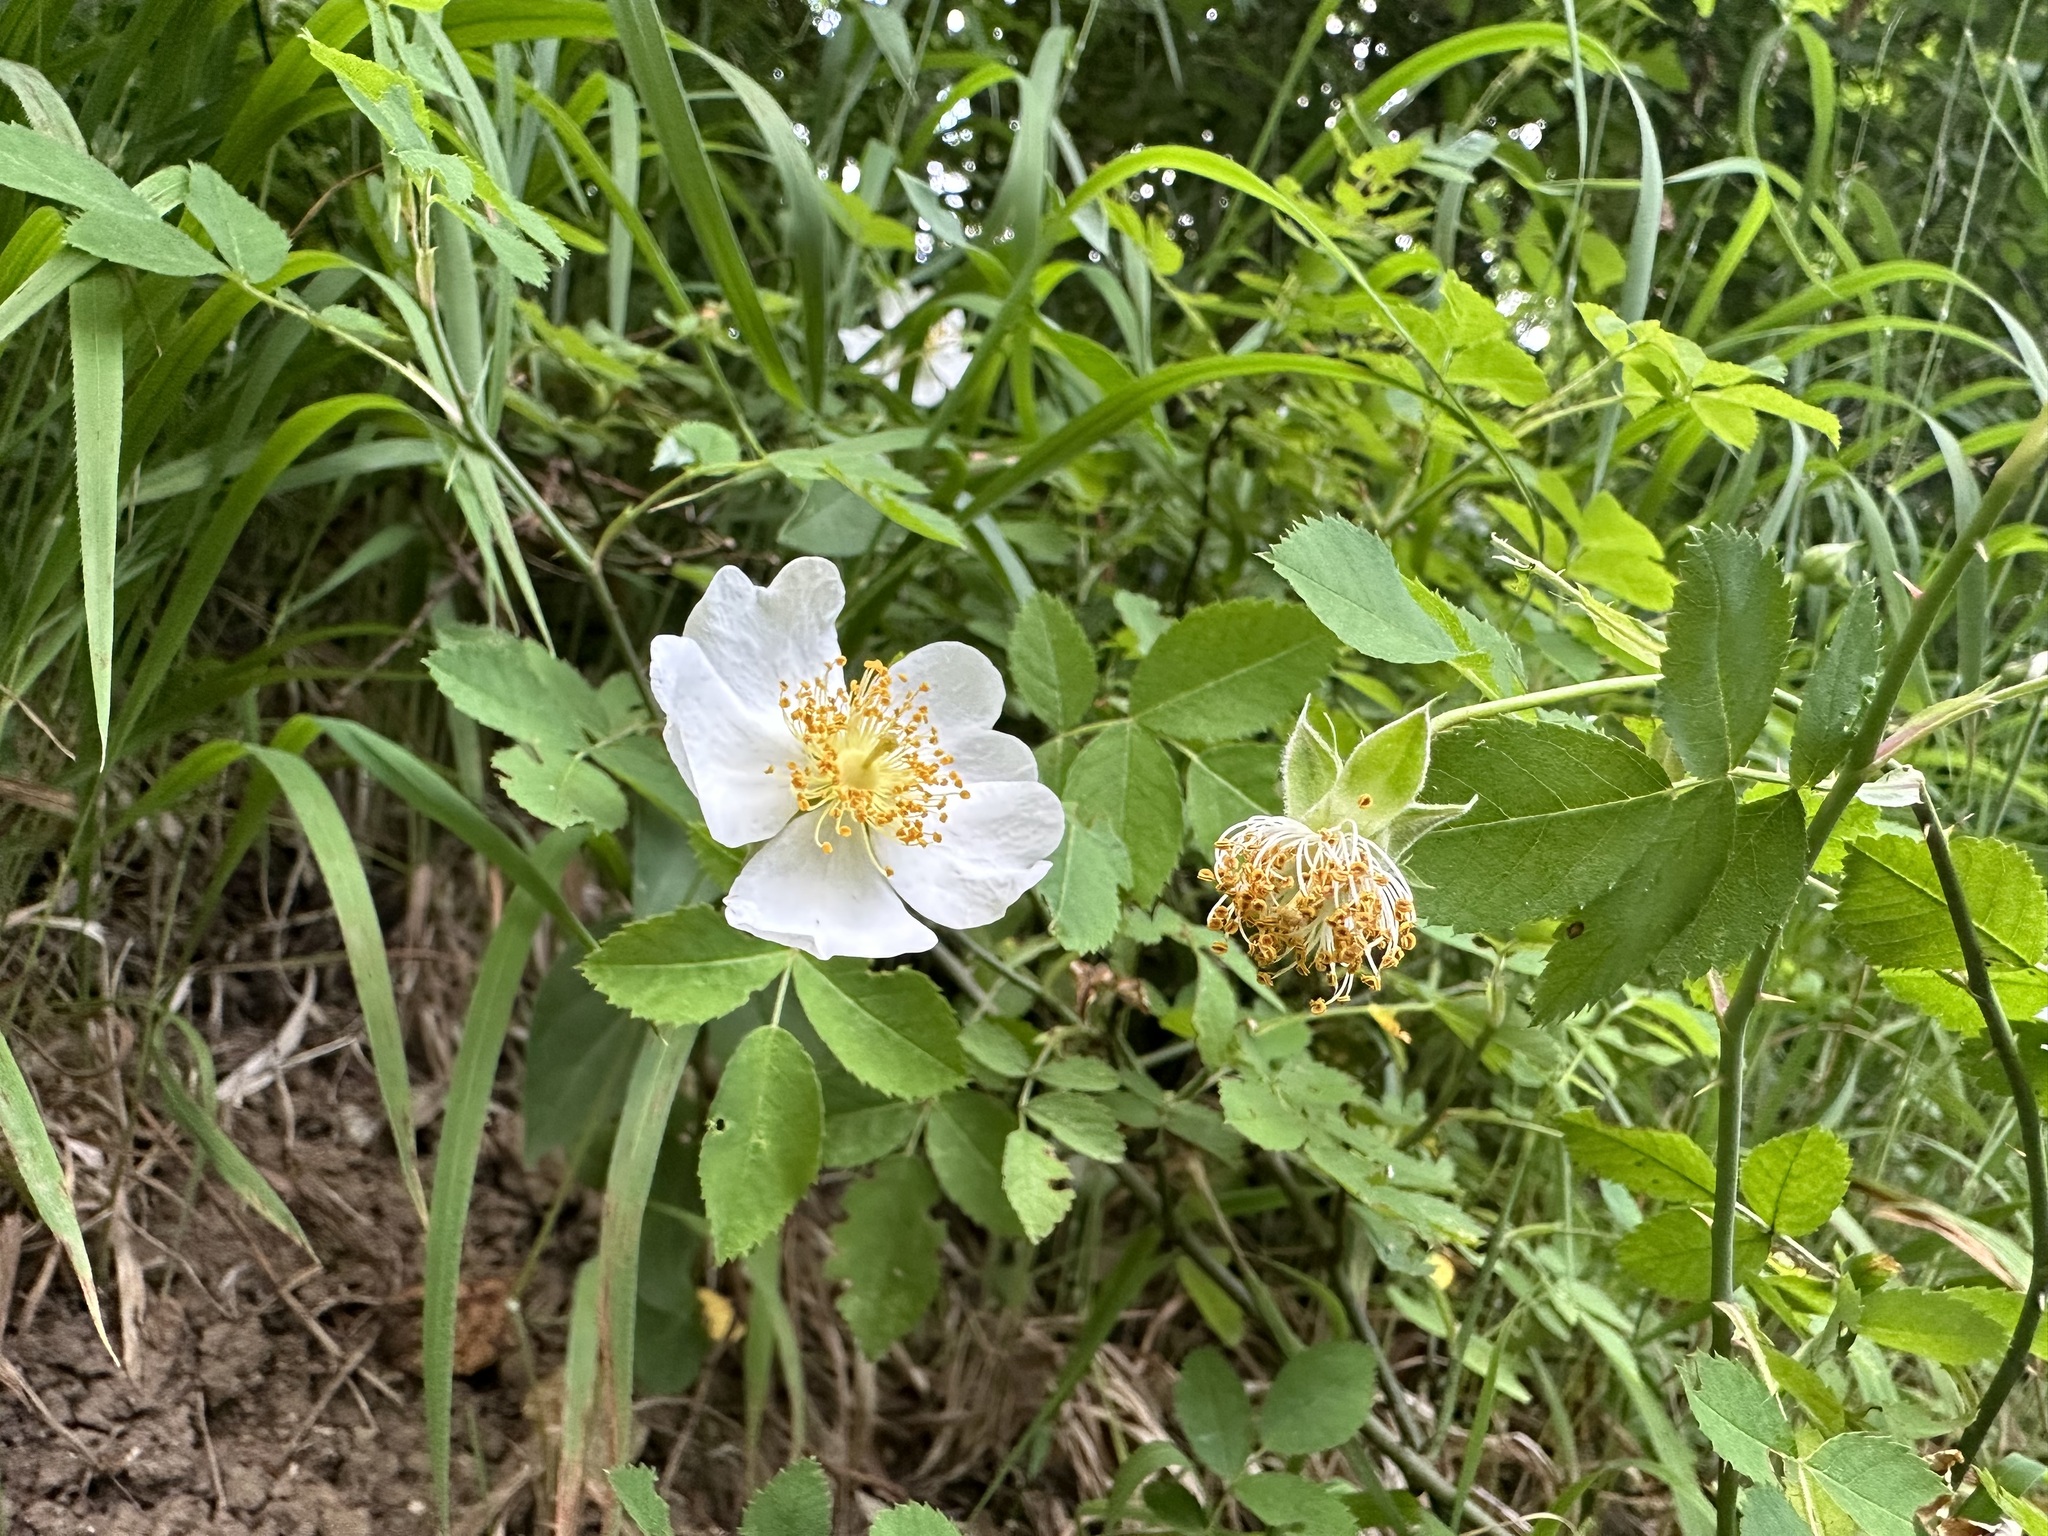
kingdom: Plantae
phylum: Tracheophyta
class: Magnoliopsida
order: Rosales
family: Rosaceae
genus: Rosa
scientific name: Rosa arvensis
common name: Field rose
